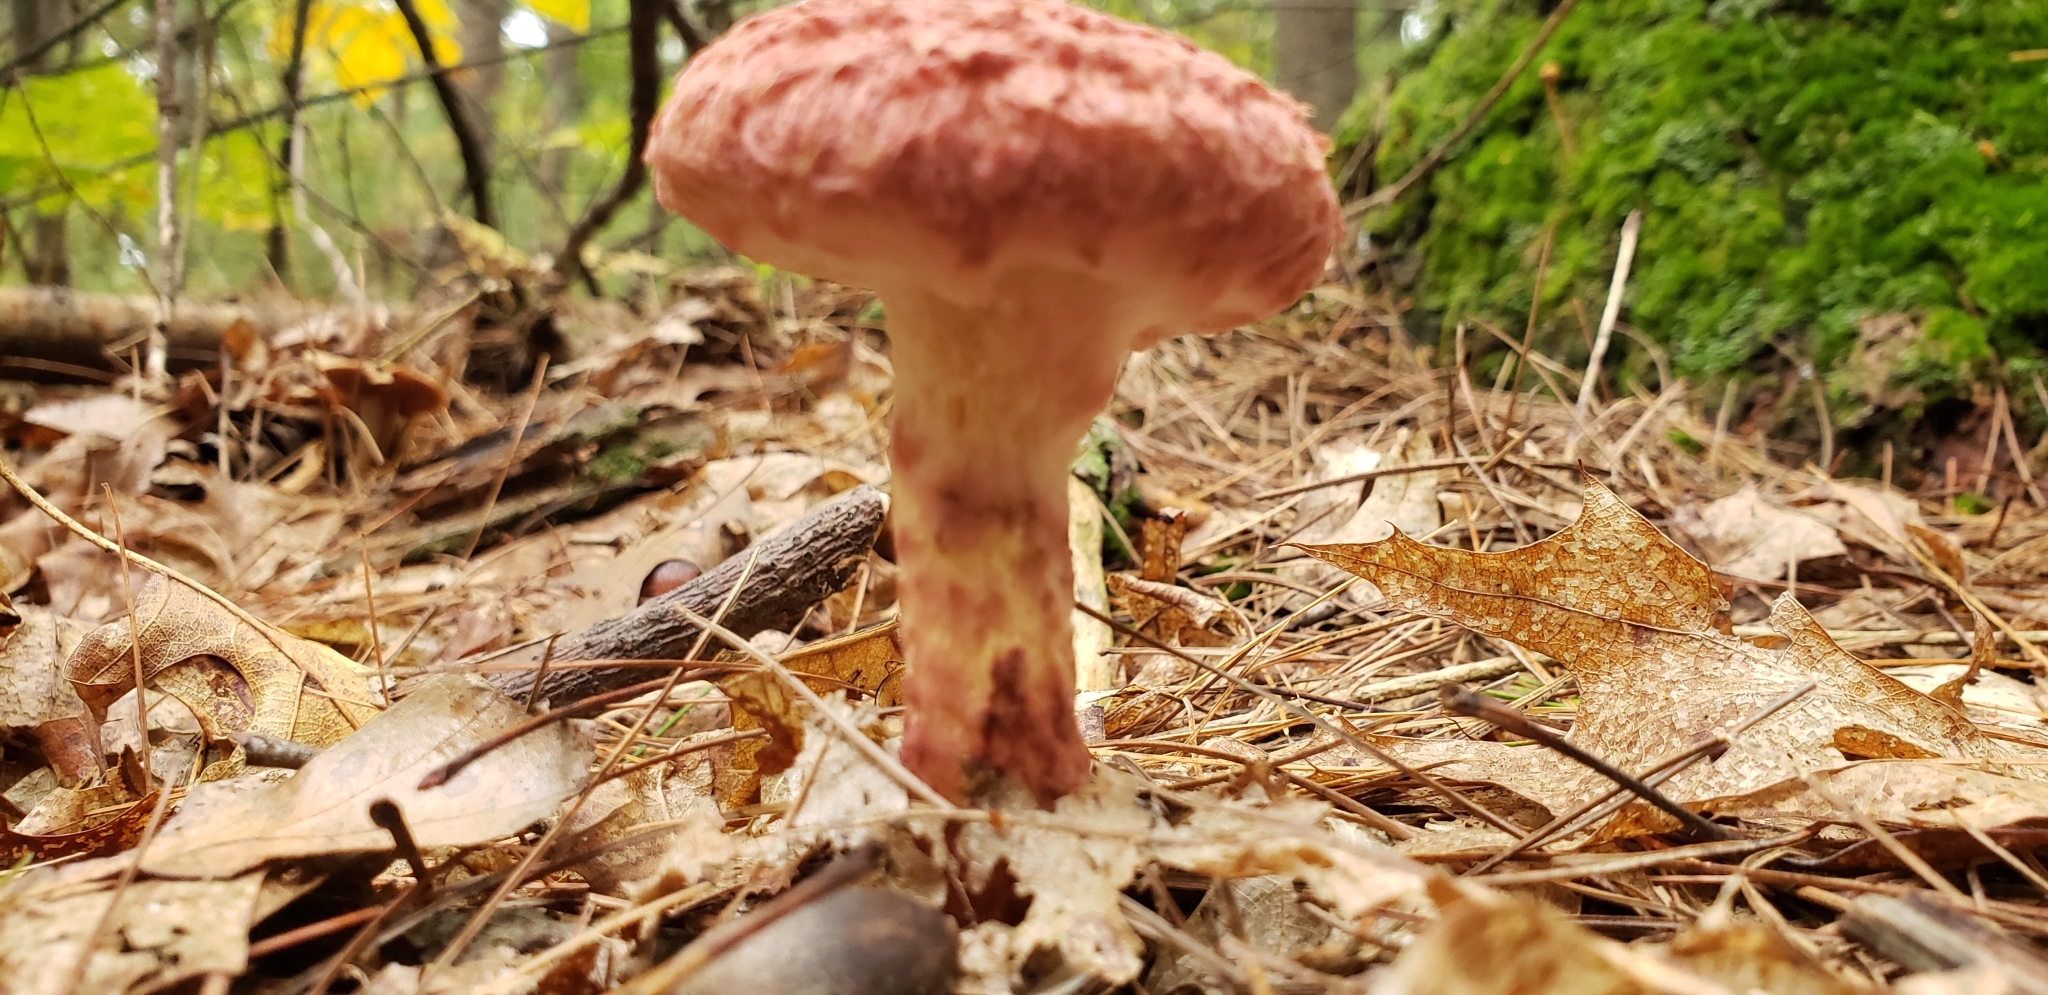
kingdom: Fungi
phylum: Basidiomycota
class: Agaricomycetes
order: Boletales
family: Suillaceae
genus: Suillus
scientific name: Suillus spraguei
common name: Painted suillus
